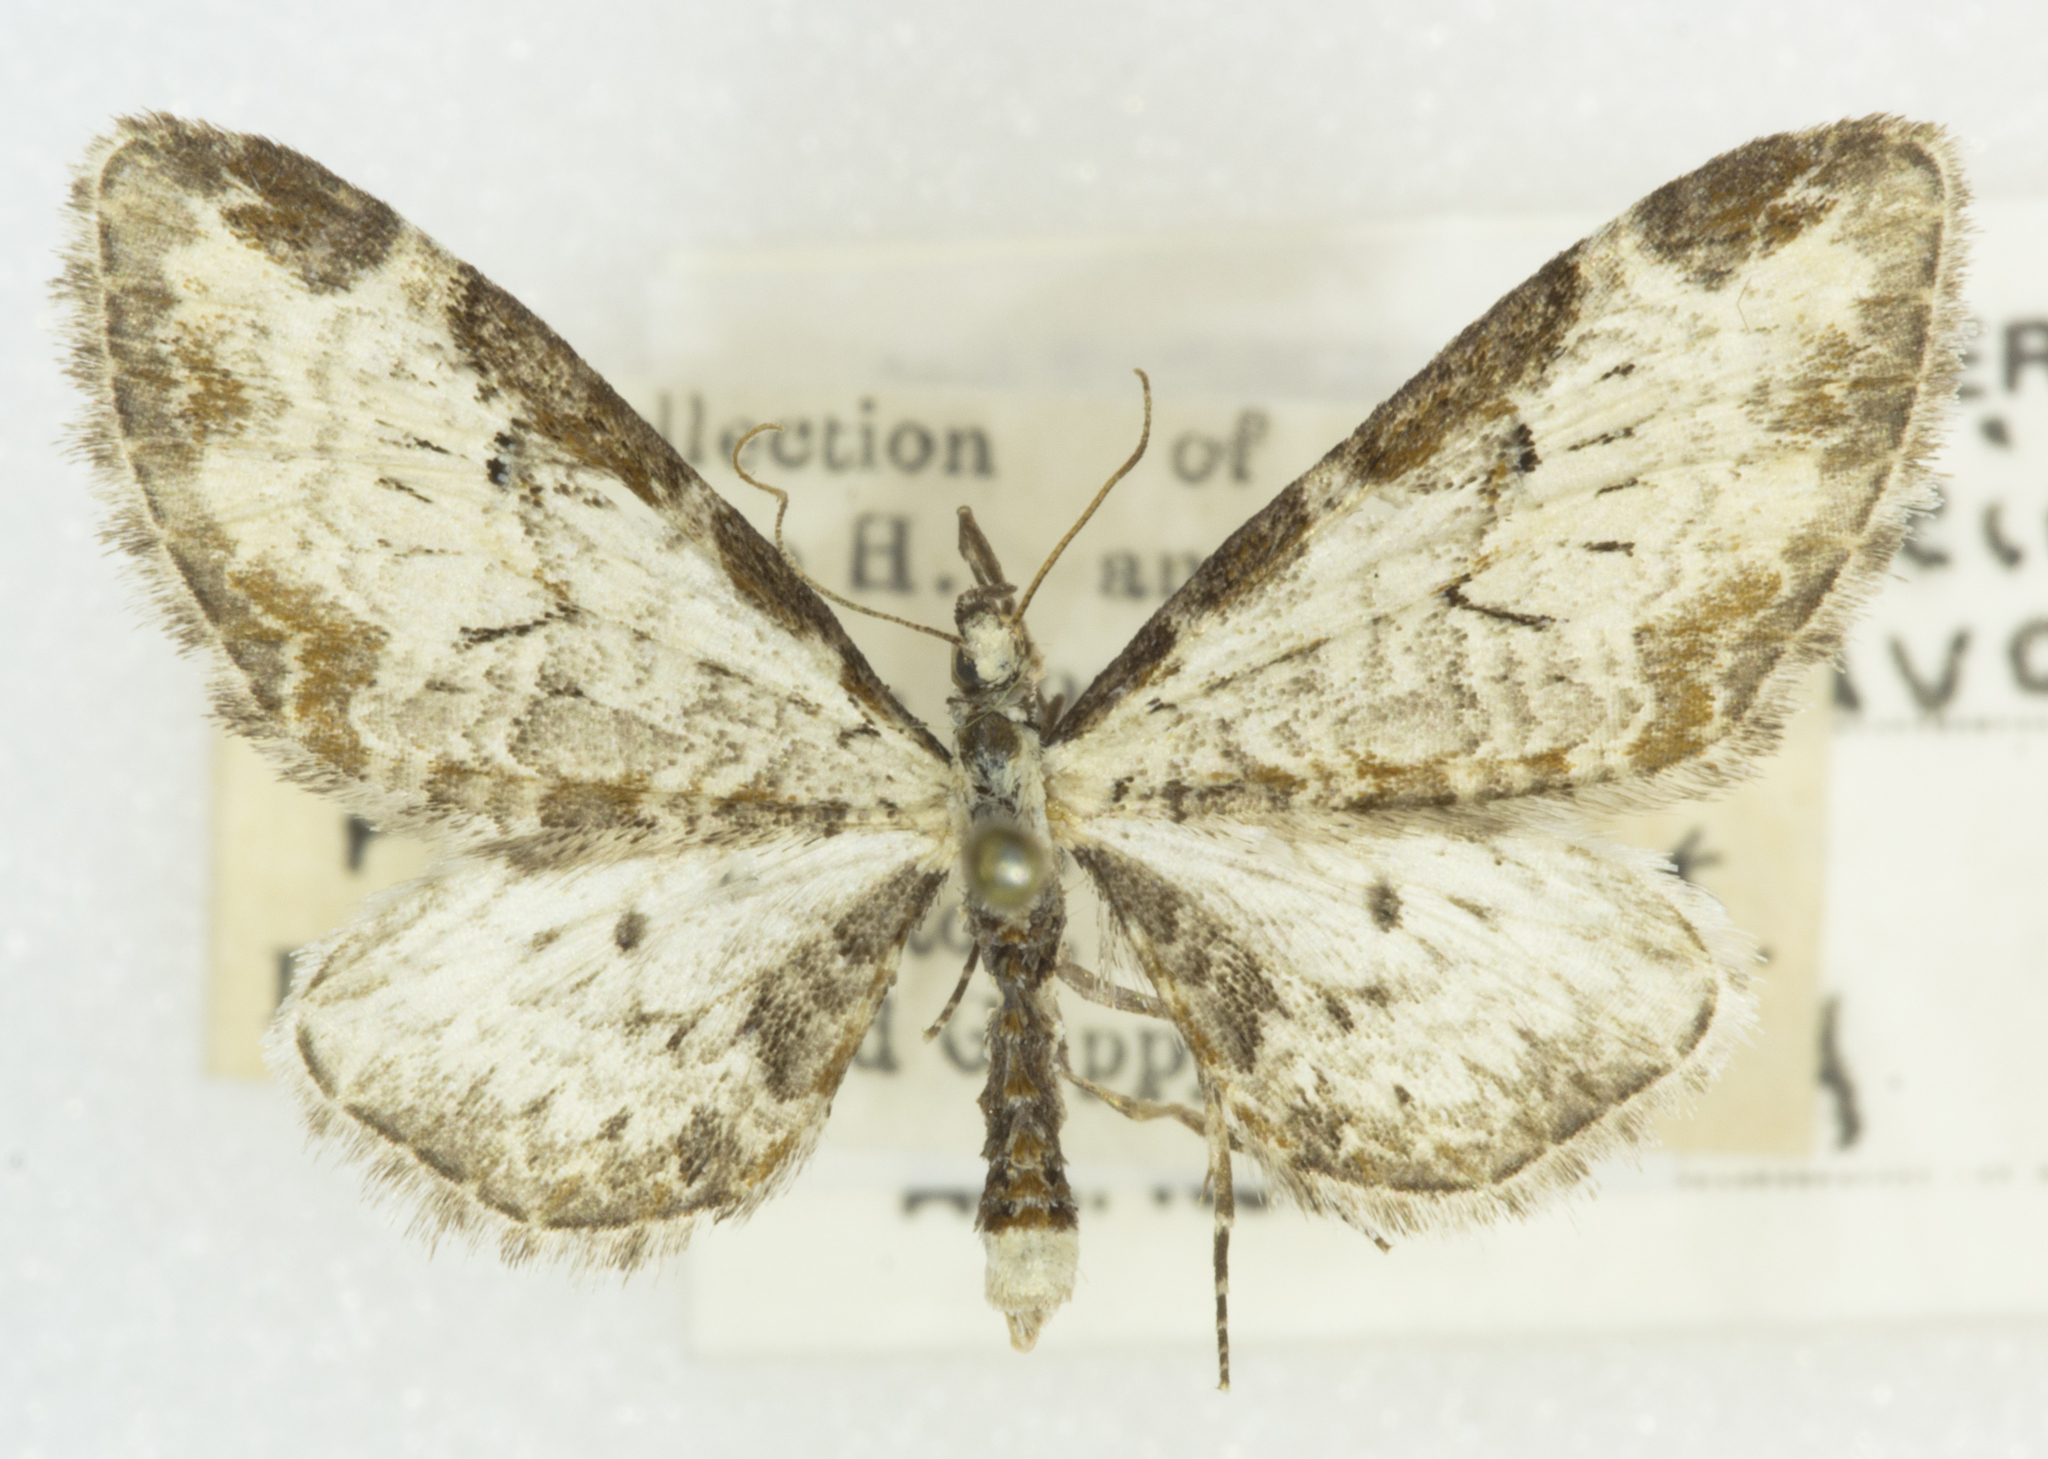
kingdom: Animalia
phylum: Arthropoda
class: Insecta
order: Lepidoptera
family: Geometridae
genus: Eupithecia
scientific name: Eupithecia ravocostaliata
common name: Great varigated pug
